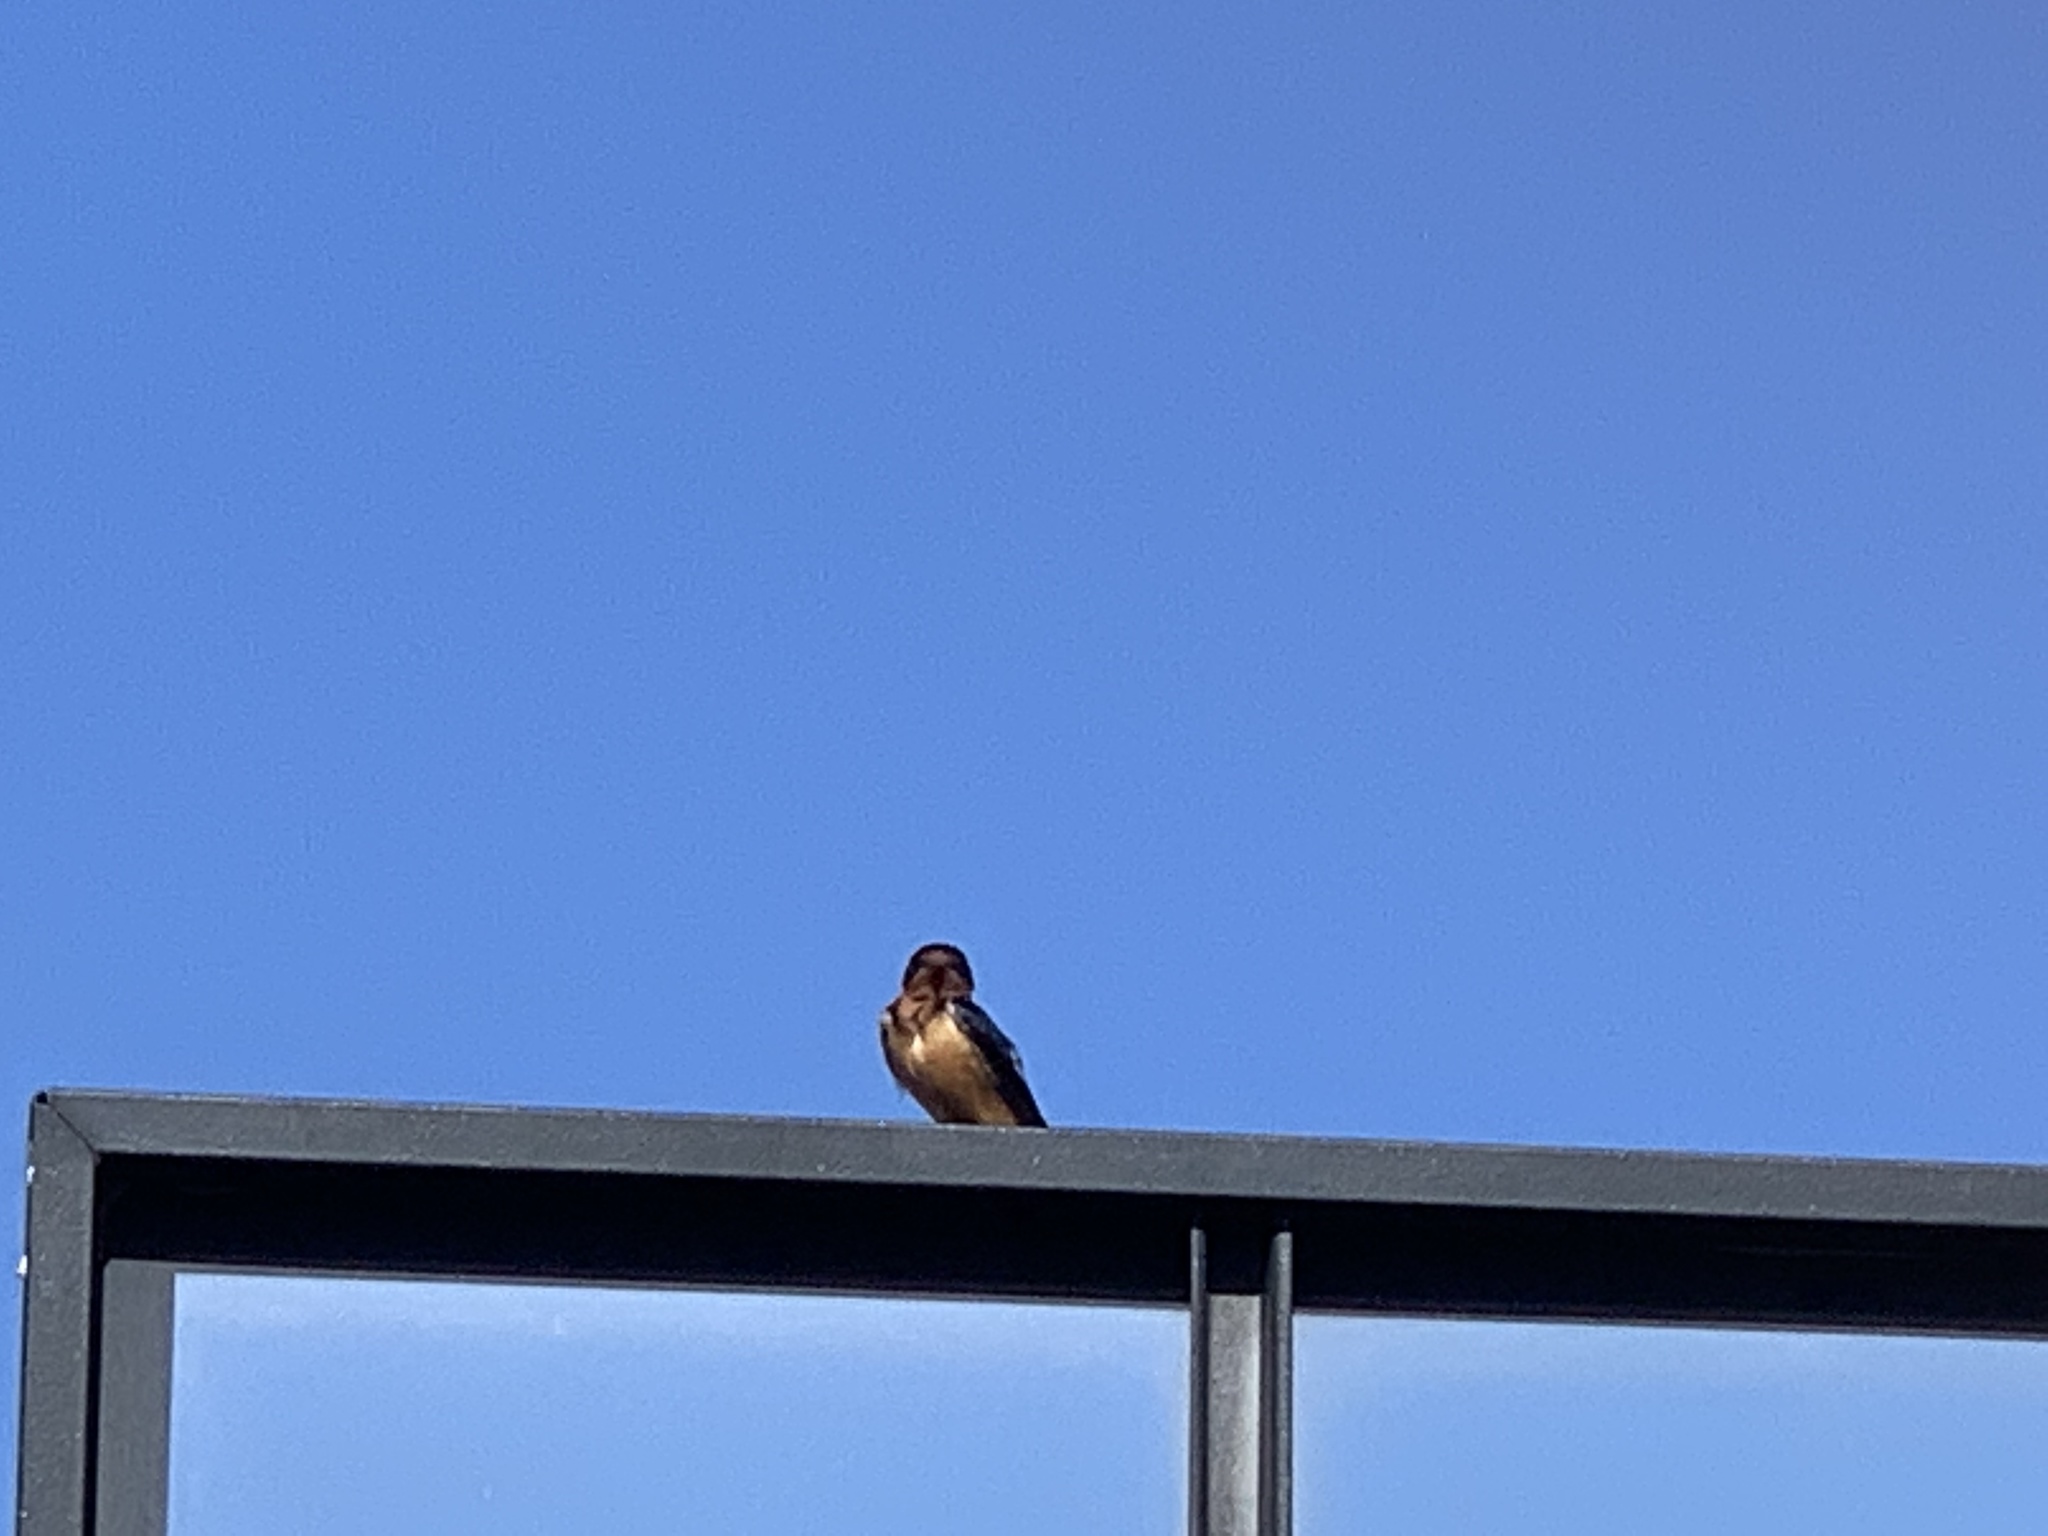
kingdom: Animalia
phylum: Chordata
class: Aves
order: Passeriformes
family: Hirundinidae
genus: Hirundo
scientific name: Hirundo rustica
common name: Barn swallow
